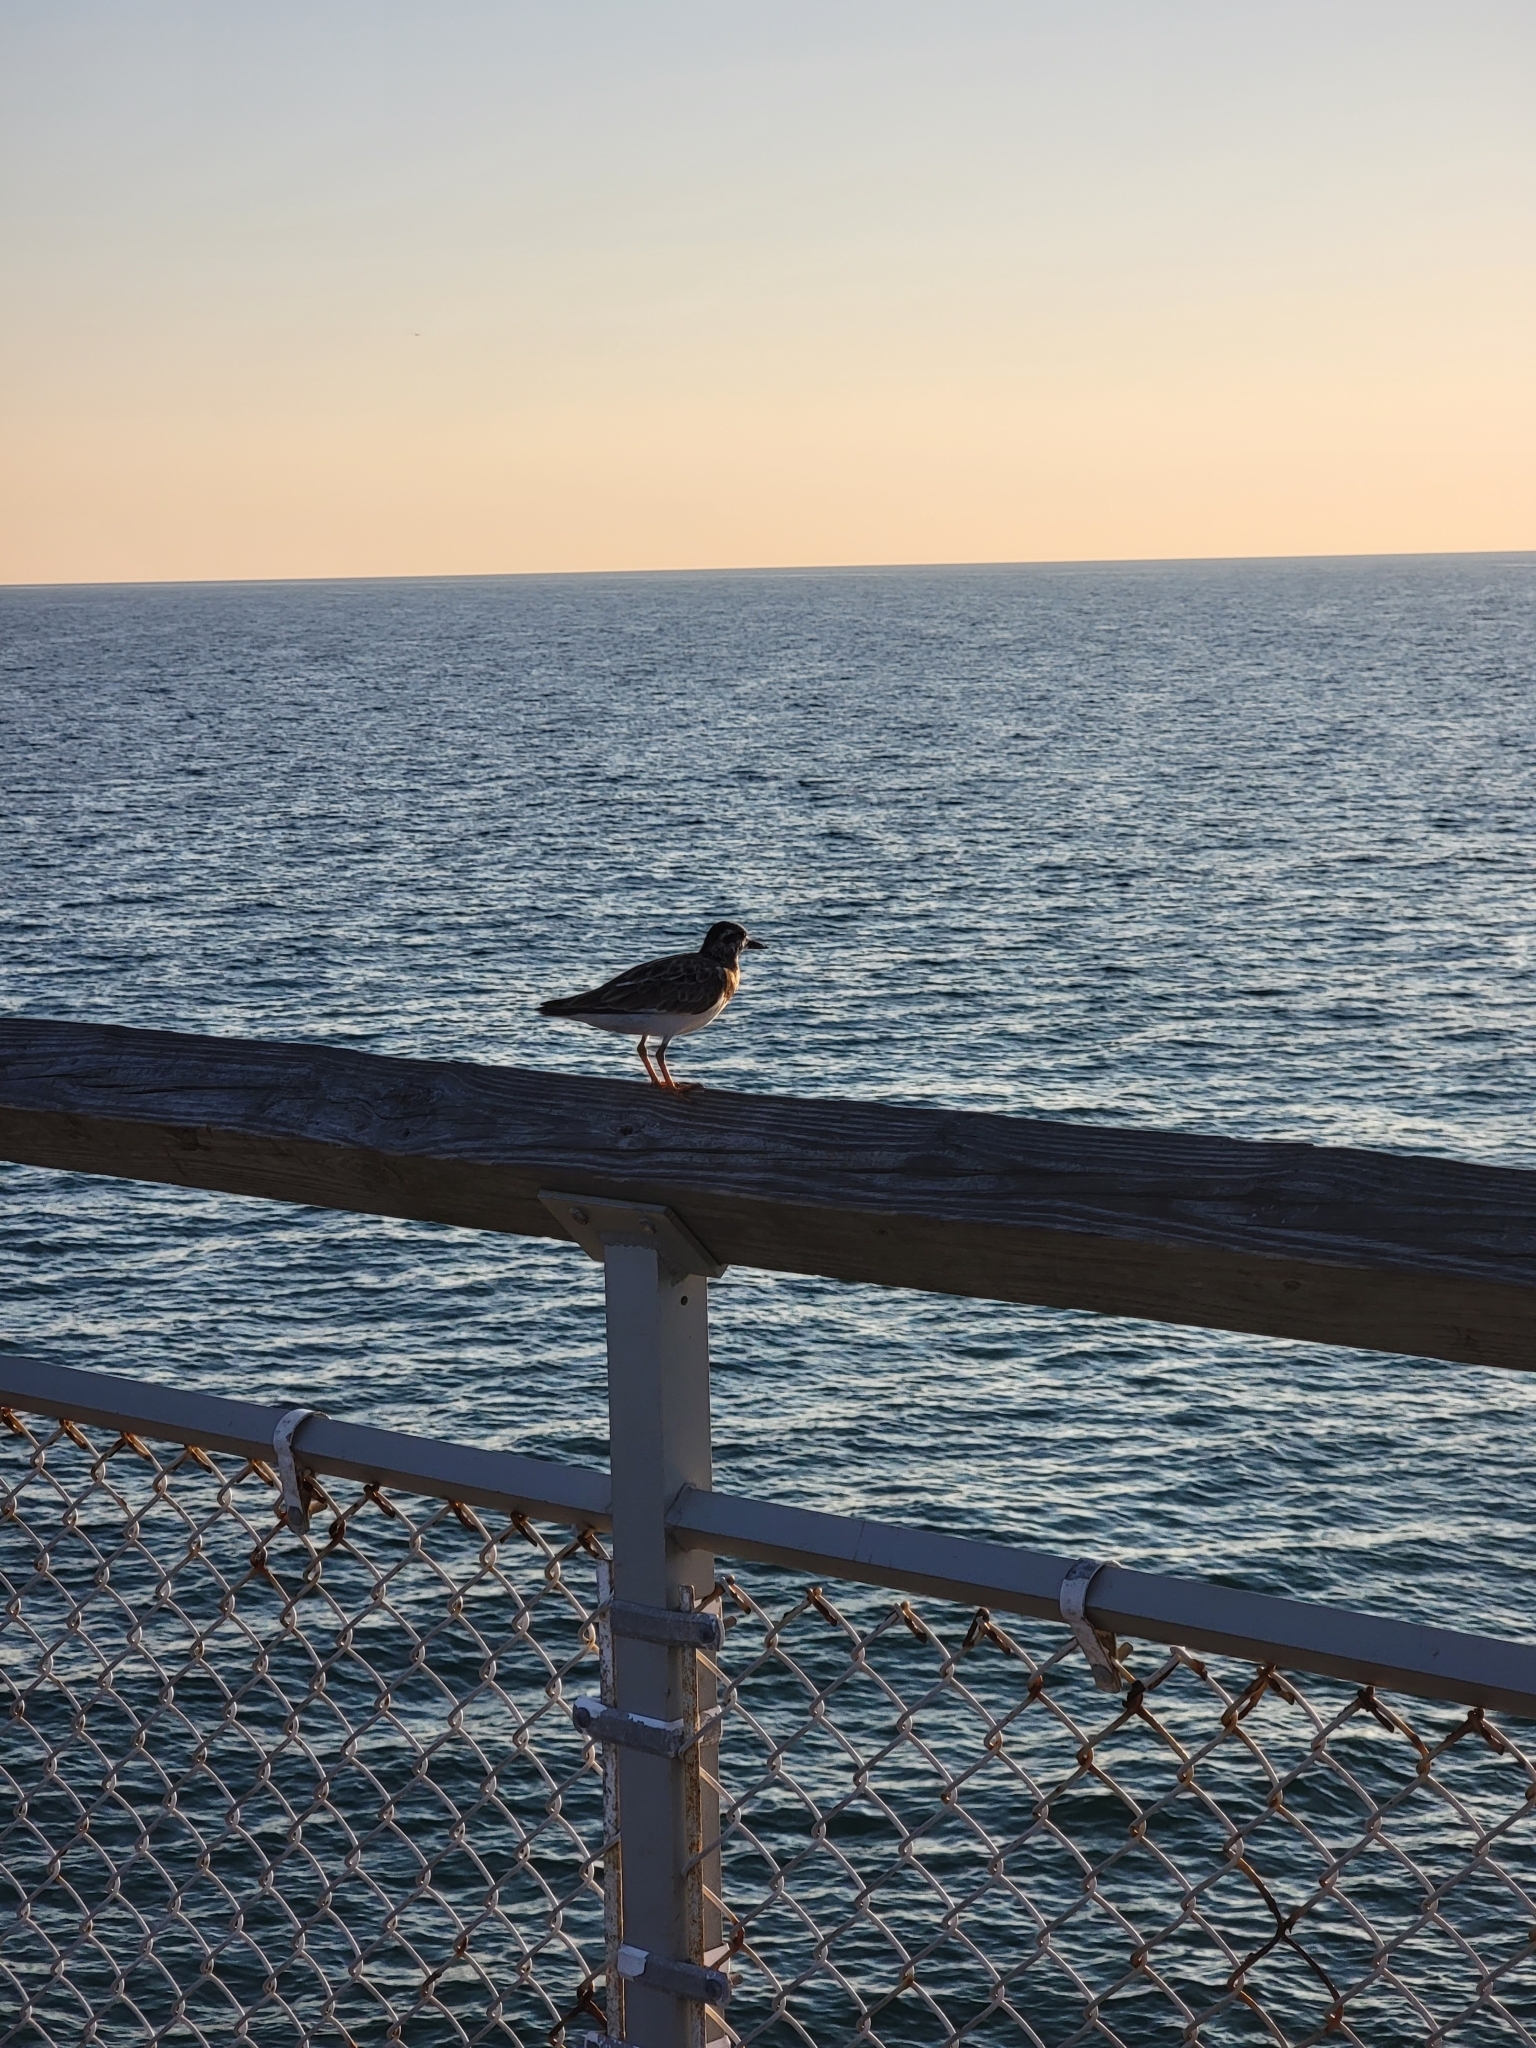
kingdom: Animalia
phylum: Chordata
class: Aves
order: Charadriiformes
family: Scolopacidae
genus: Arenaria
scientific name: Arenaria interpres
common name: Ruddy turnstone
